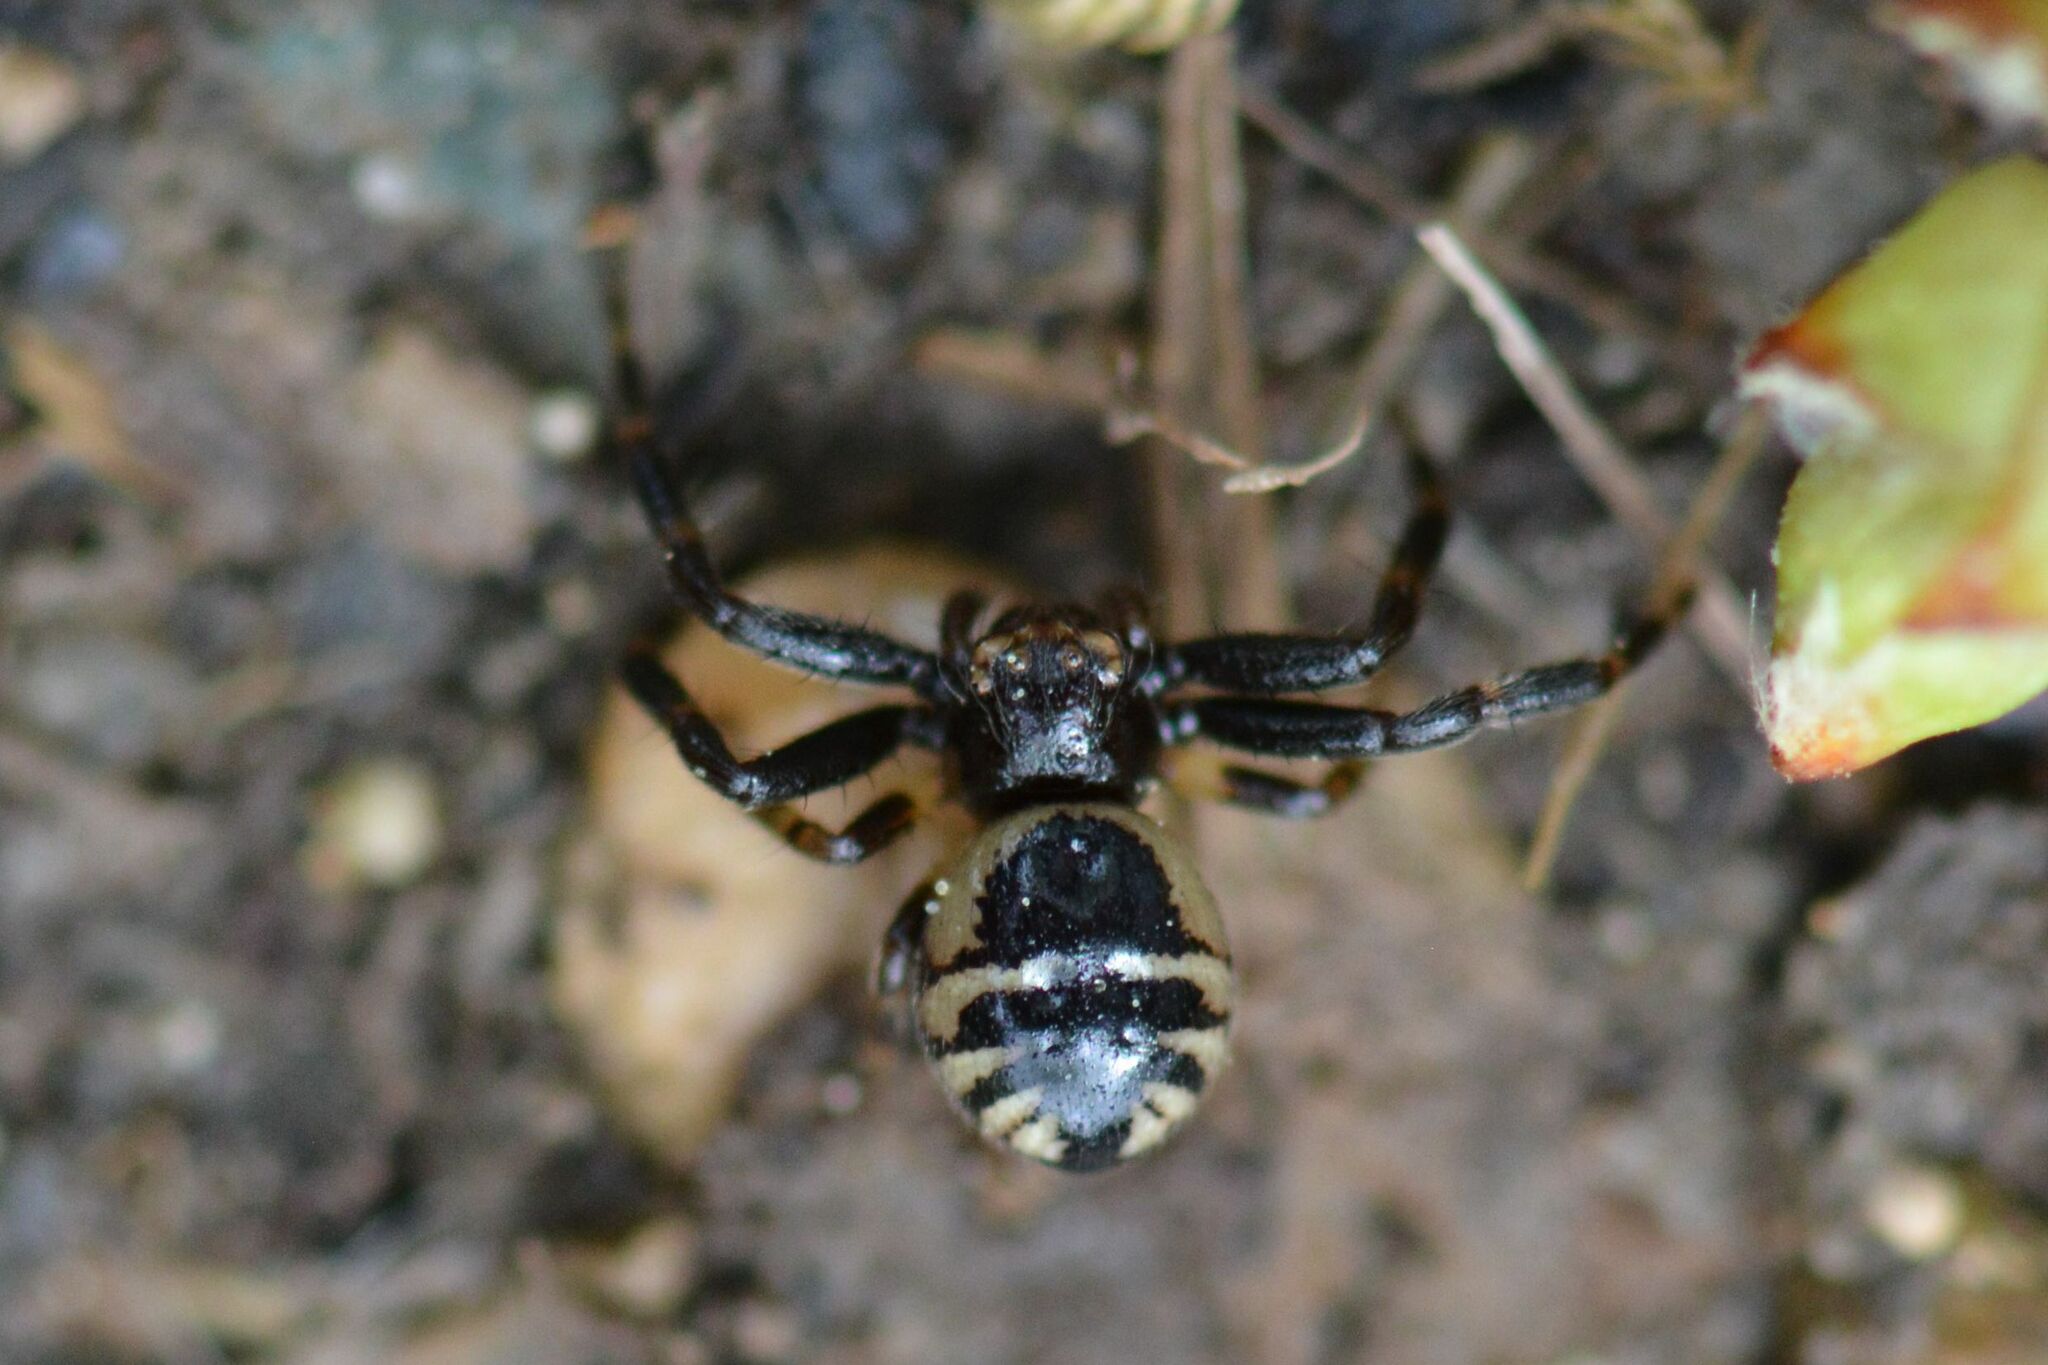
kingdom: Animalia
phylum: Arthropoda
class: Arachnida
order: Araneae
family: Thomisidae
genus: Synema
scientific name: Synema globosum
